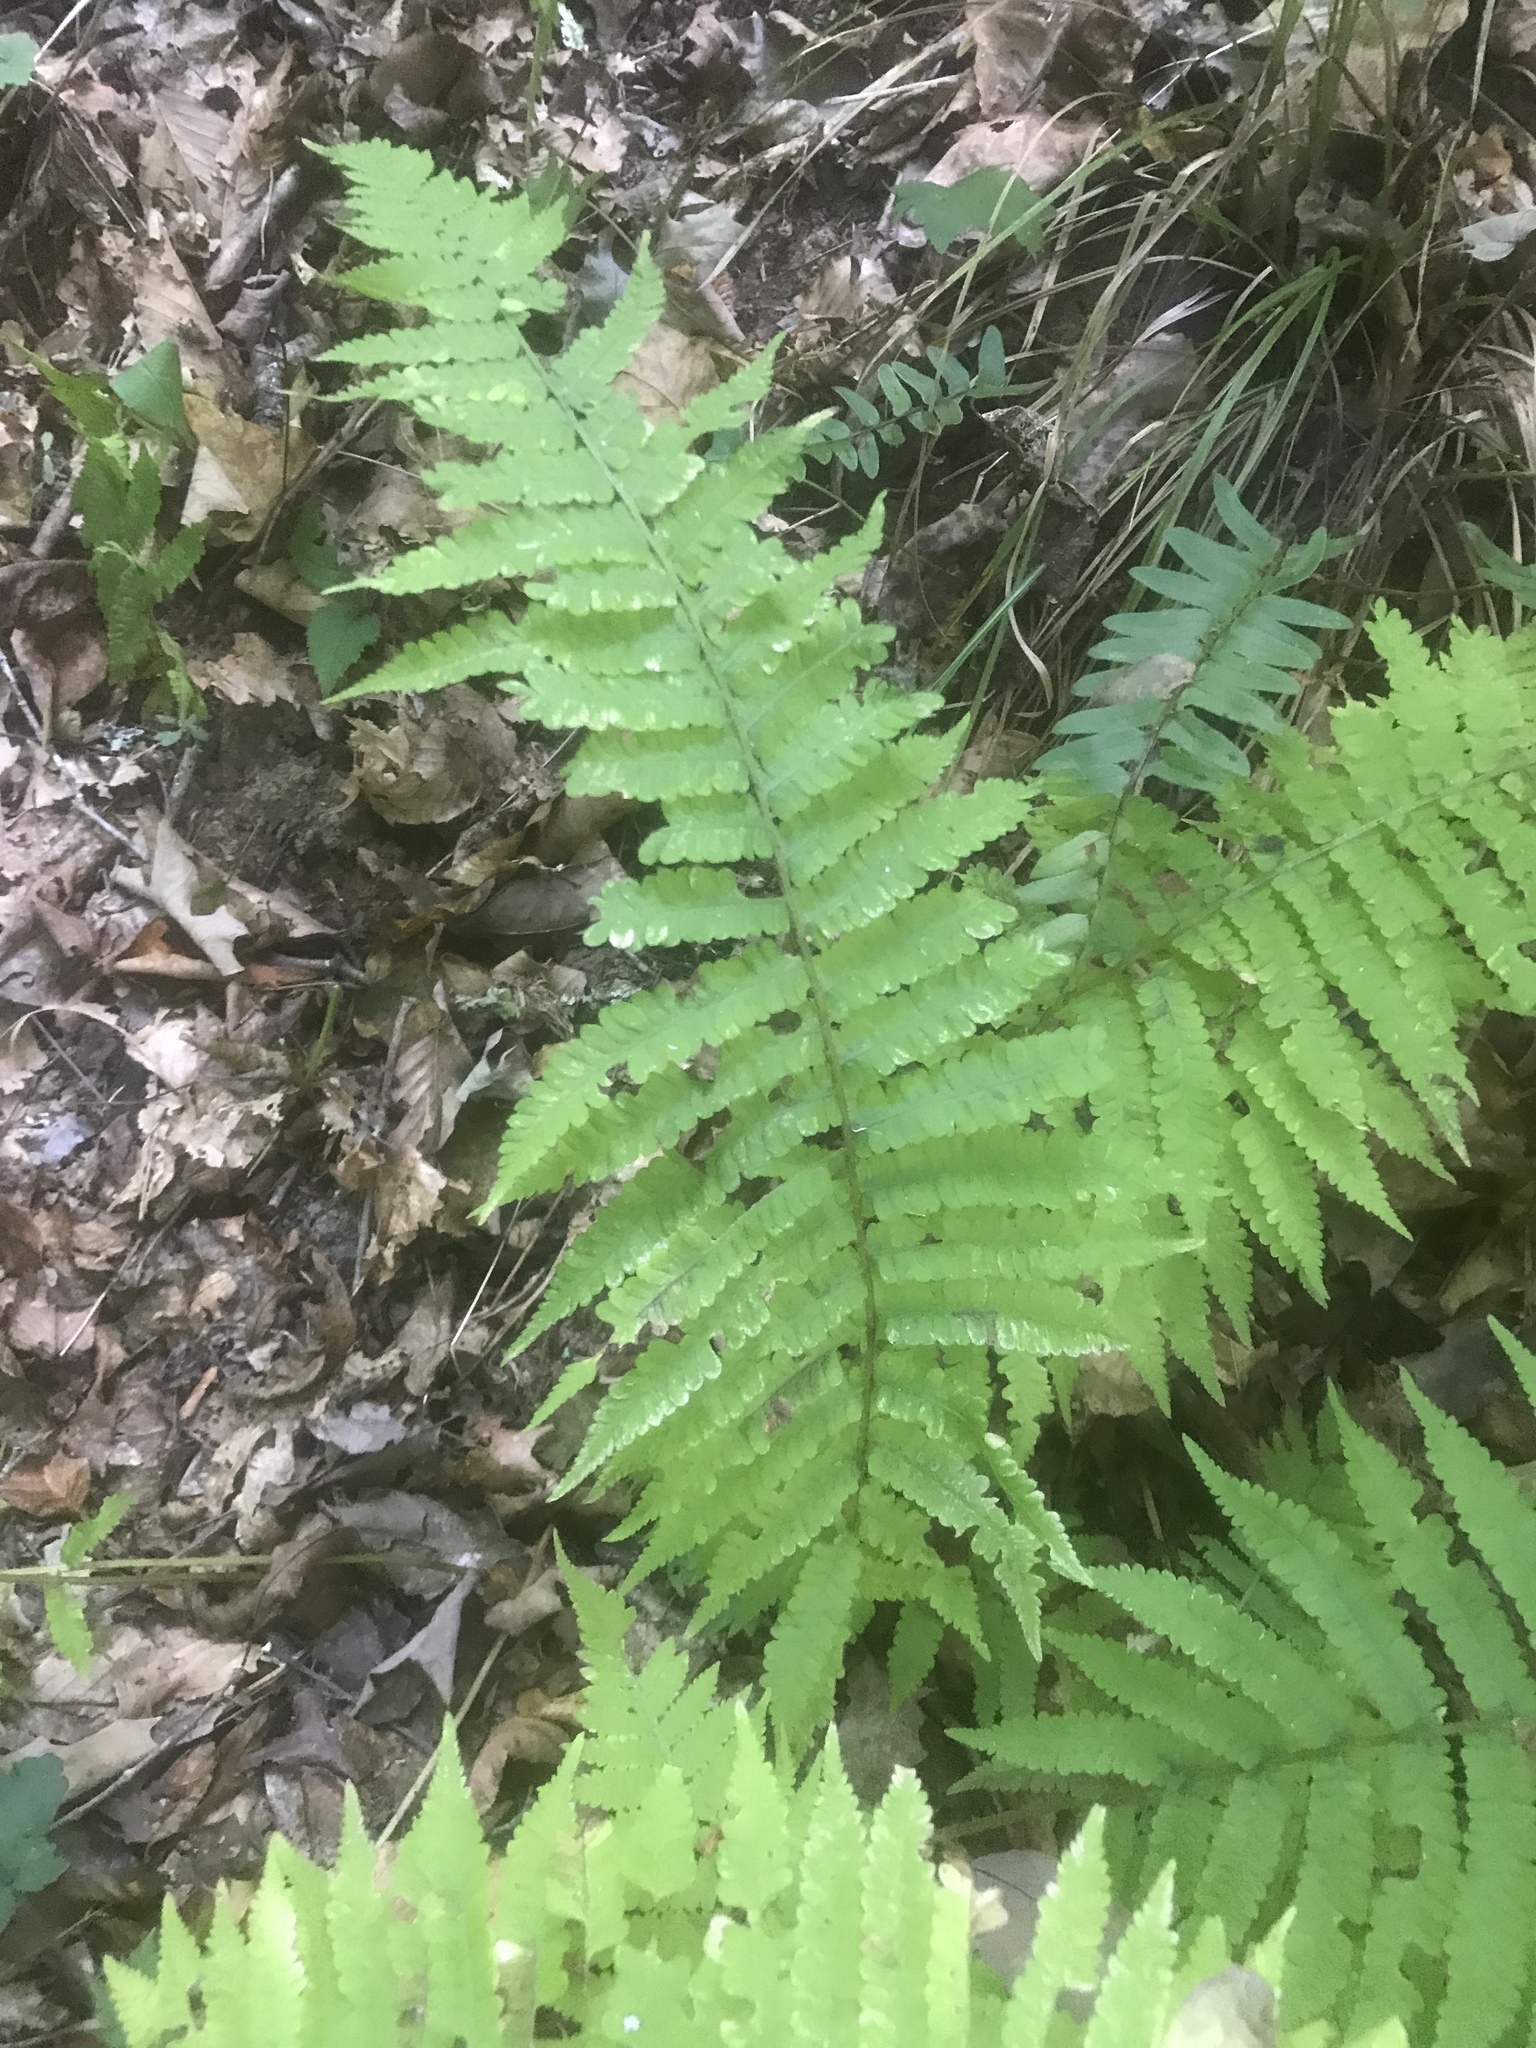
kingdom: Plantae
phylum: Tracheophyta
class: Polypodiopsida
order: Polypodiales
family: Athyriaceae
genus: Deparia
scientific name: Deparia acrostichoides
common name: Silver false spleenwort
